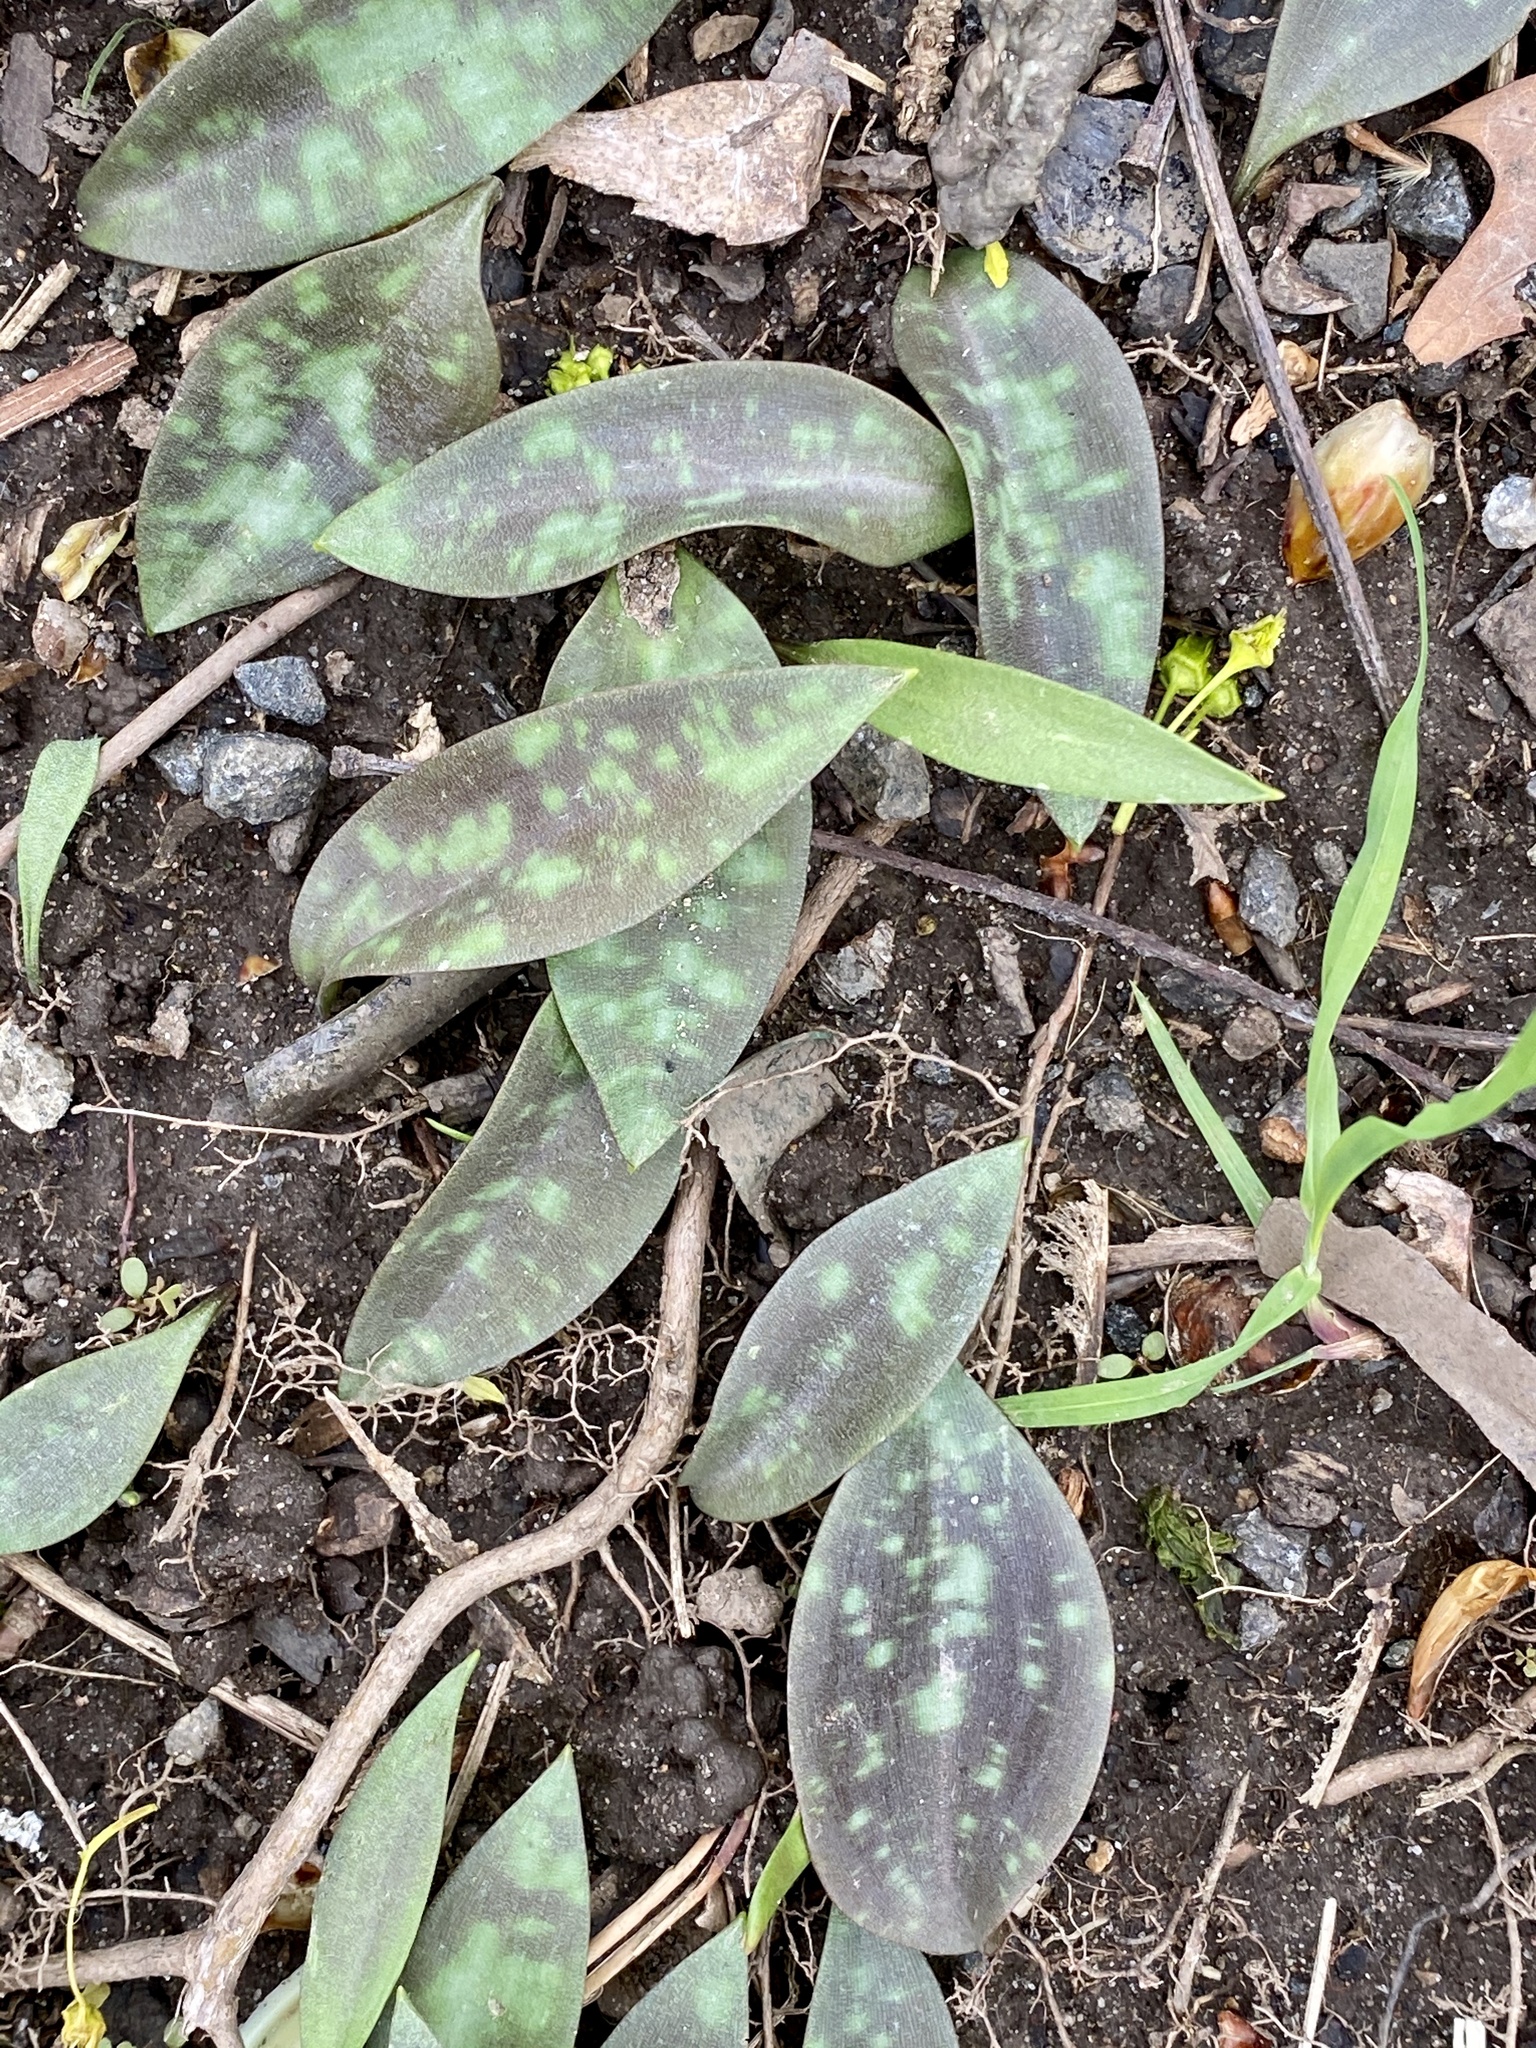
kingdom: Plantae
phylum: Tracheophyta
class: Liliopsida
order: Liliales
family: Liliaceae
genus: Erythronium
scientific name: Erythronium americanum
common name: Yellow adder's-tongue
